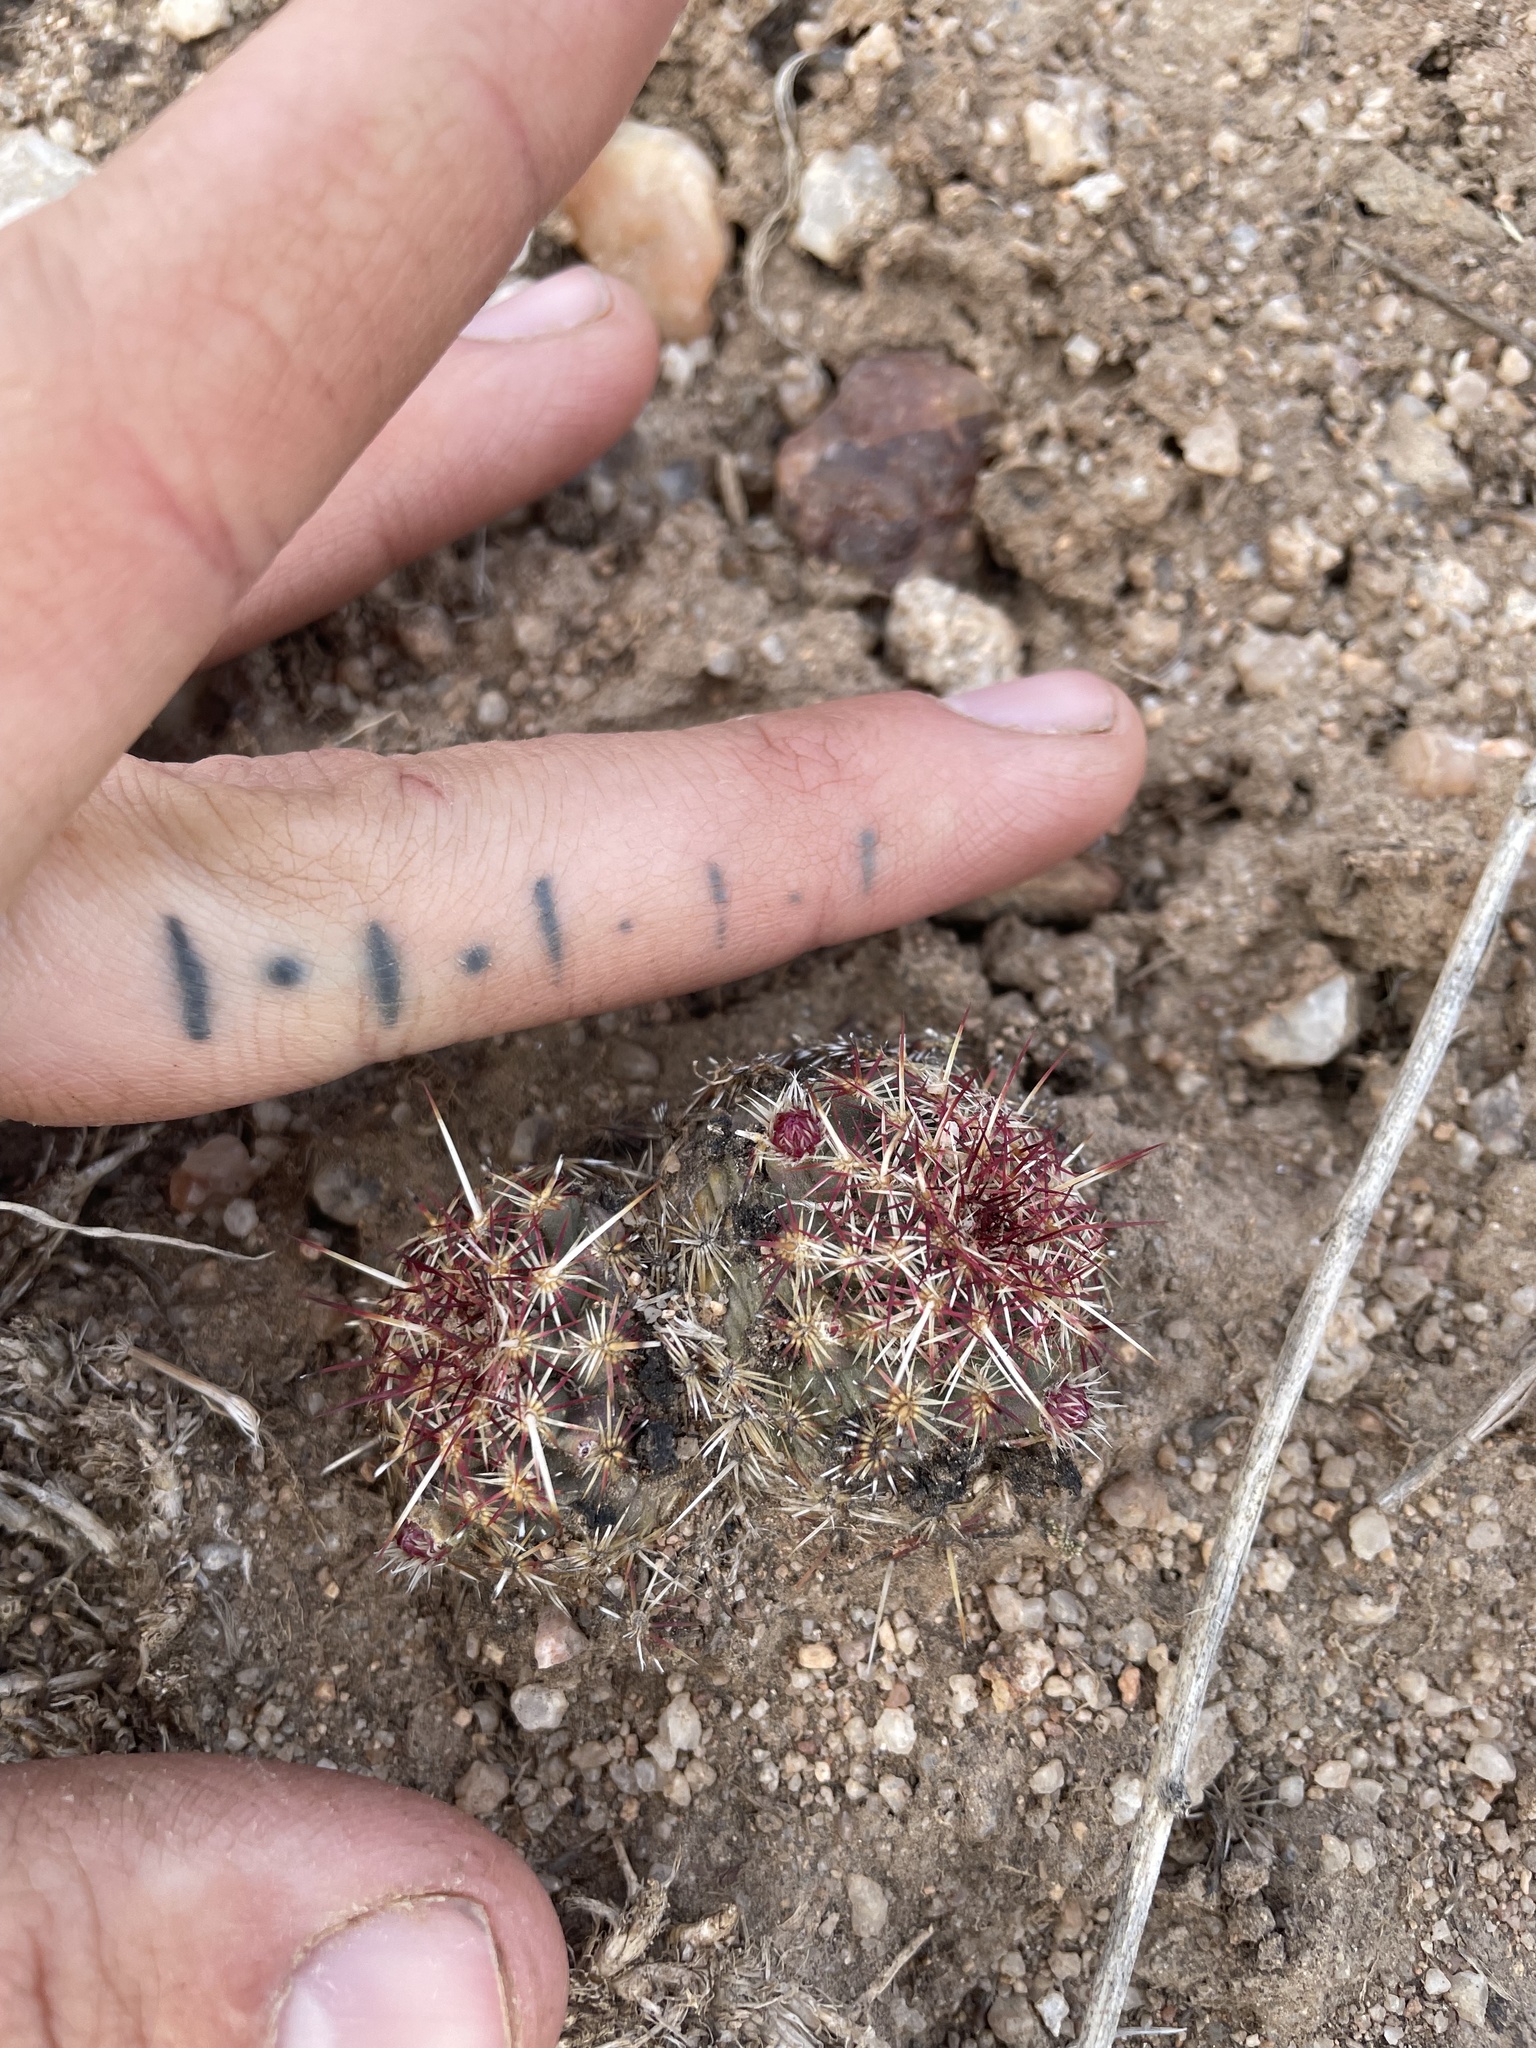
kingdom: Plantae
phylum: Tracheophyta
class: Magnoliopsida
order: Caryophyllales
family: Cactaceae
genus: Echinocereus
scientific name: Echinocereus viridiflorus
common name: Nylon hedgehog cactus
